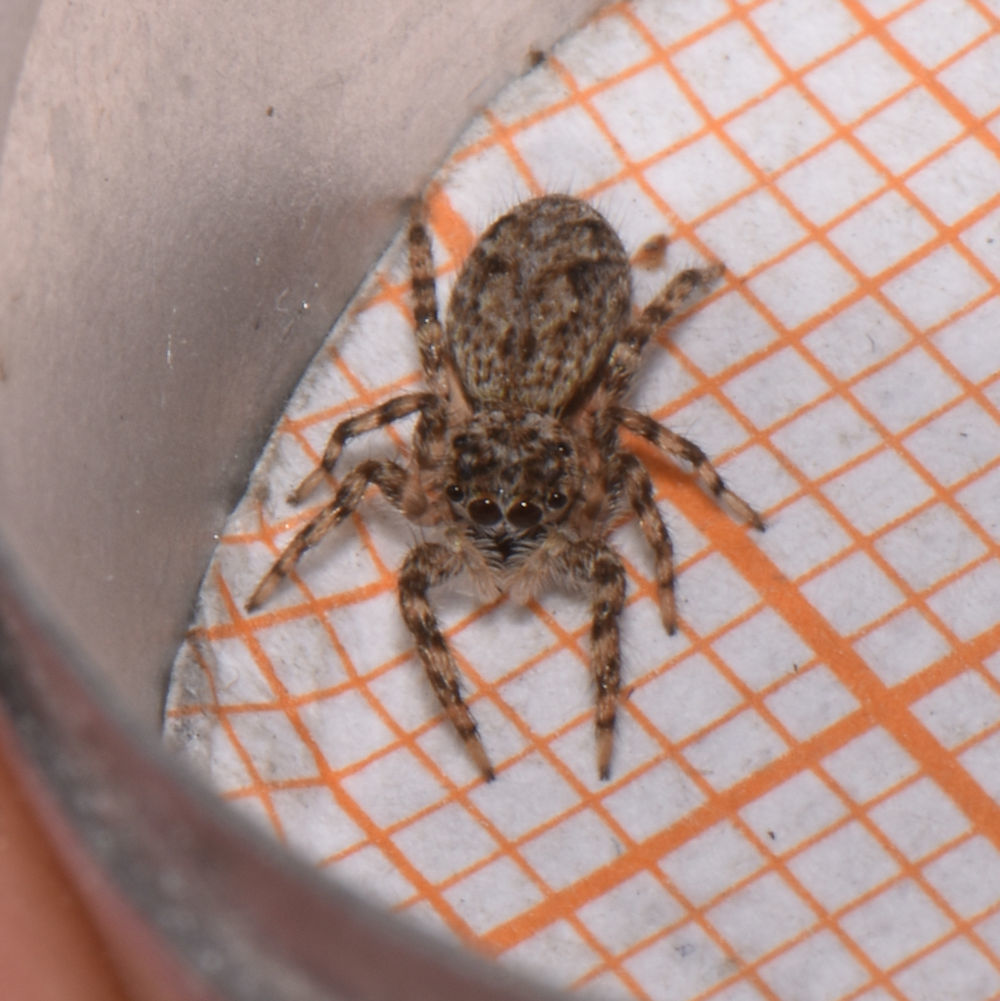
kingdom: Animalia
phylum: Arthropoda
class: Arachnida
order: Araneae
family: Salticidae
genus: Platycryptus
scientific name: Platycryptus undatus
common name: Tan jumping spider
